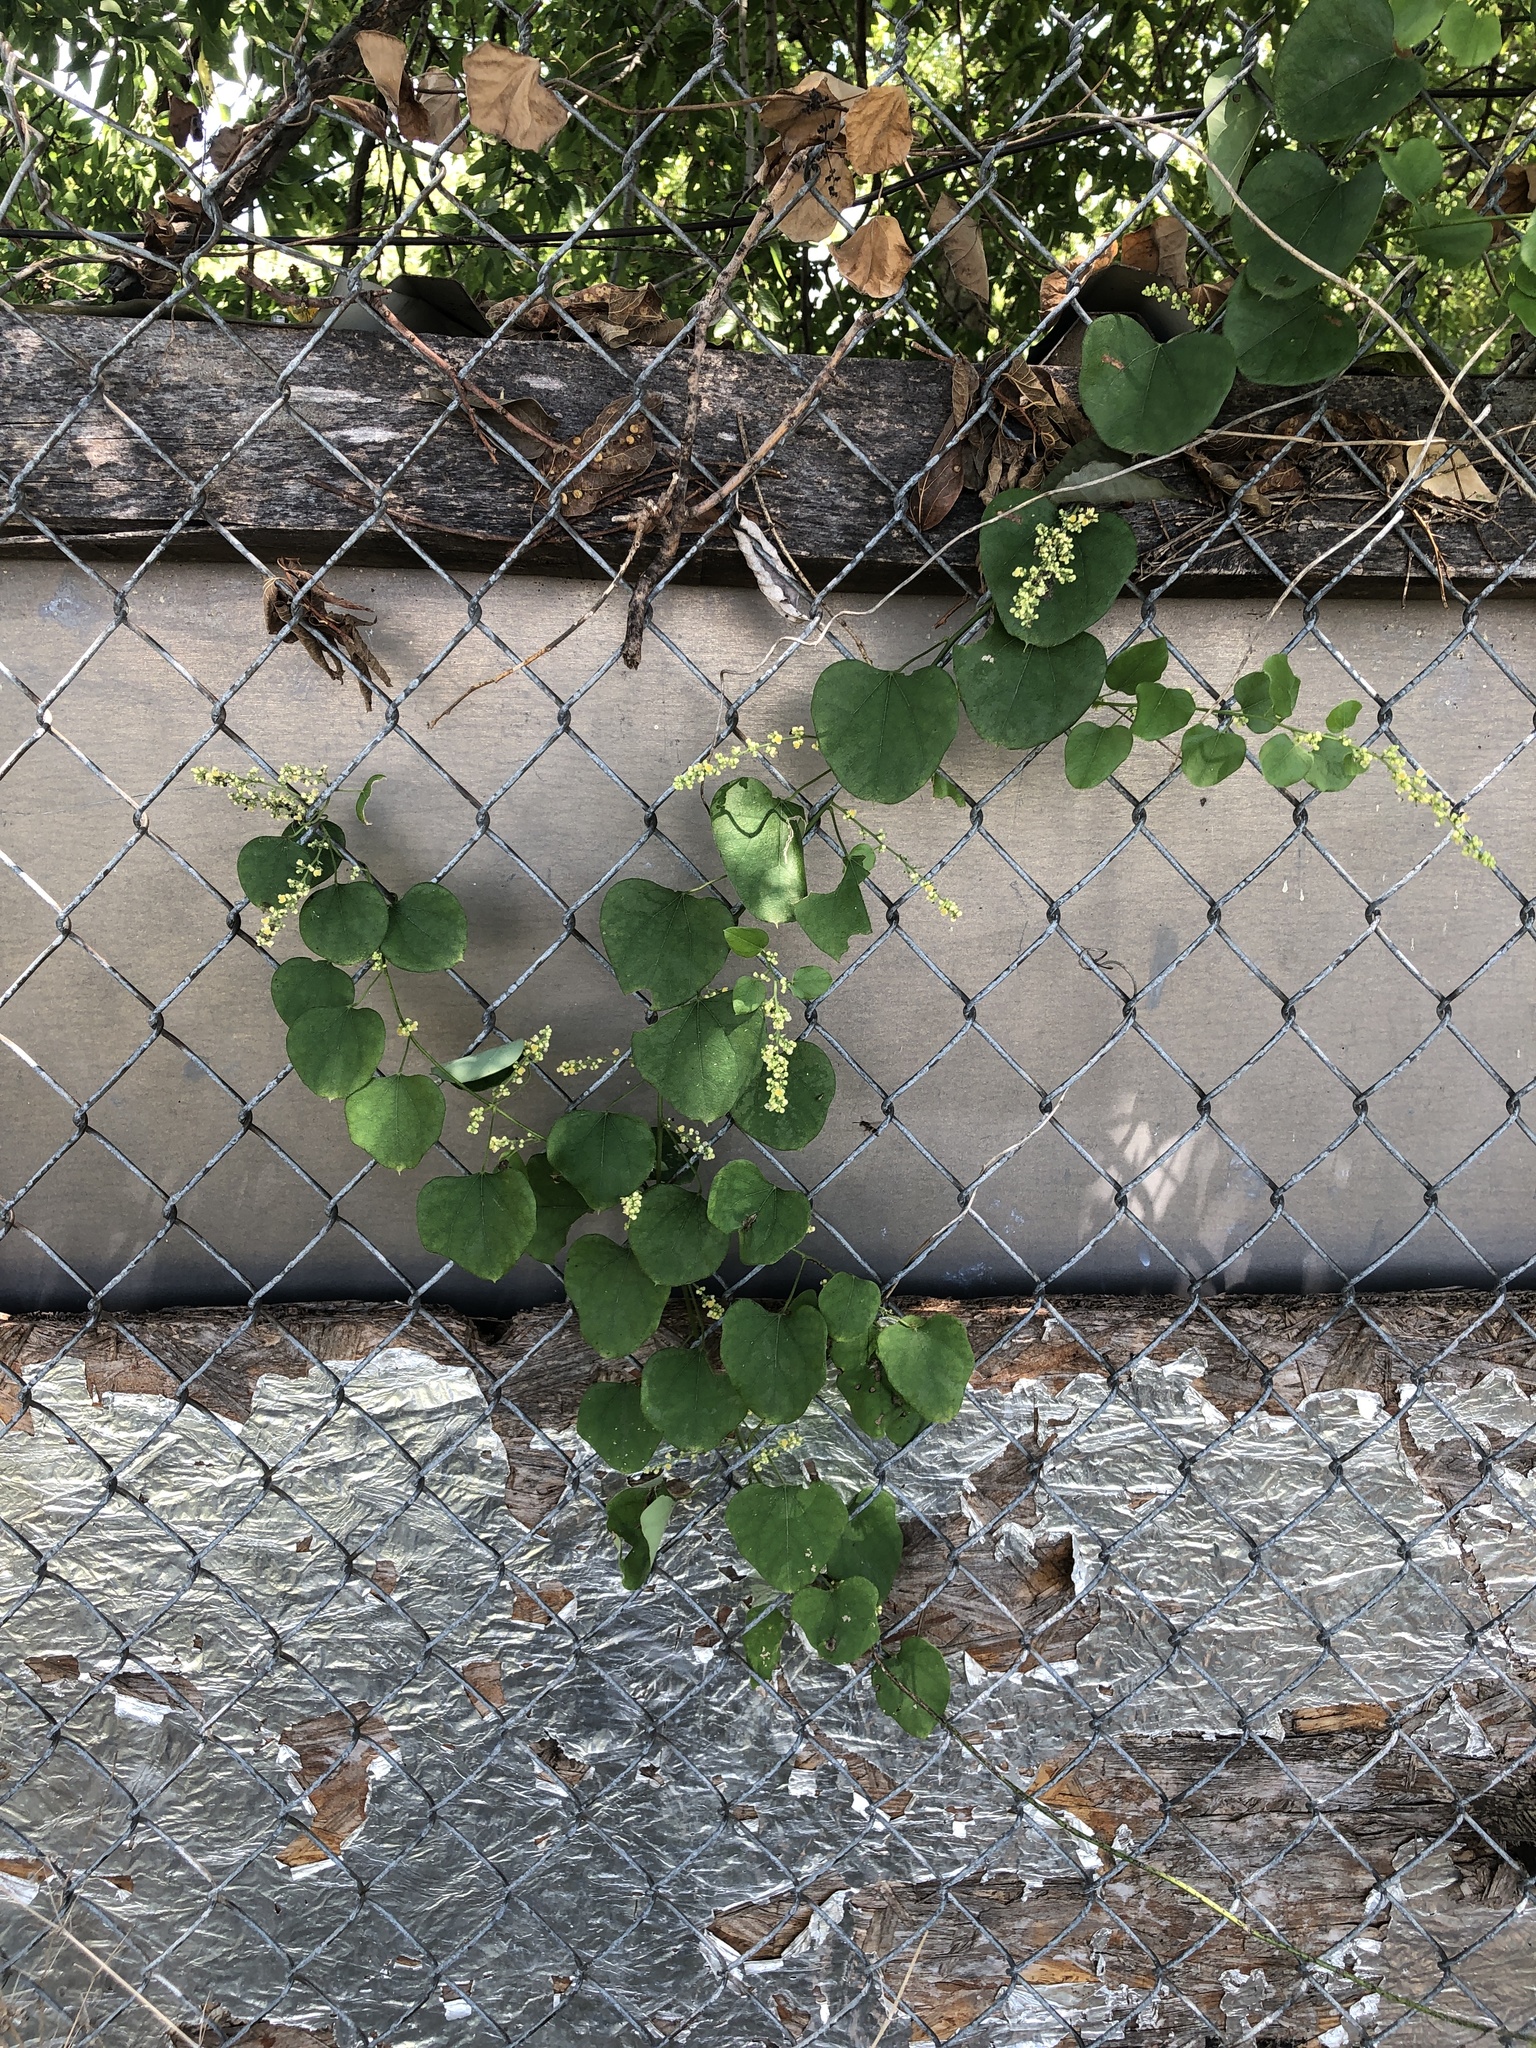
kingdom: Plantae
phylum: Tracheophyta
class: Magnoliopsida
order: Ranunculales
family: Menispermaceae
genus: Cocculus
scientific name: Cocculus carolinus
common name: Carolina moonseed
